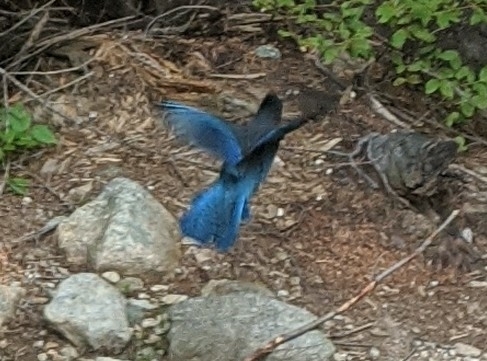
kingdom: Animalia
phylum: Chordata
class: Aves
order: Passeriformes
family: Corvidae
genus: Cyanocitta
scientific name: Cyanocitta stelleri
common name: Steller's jay
